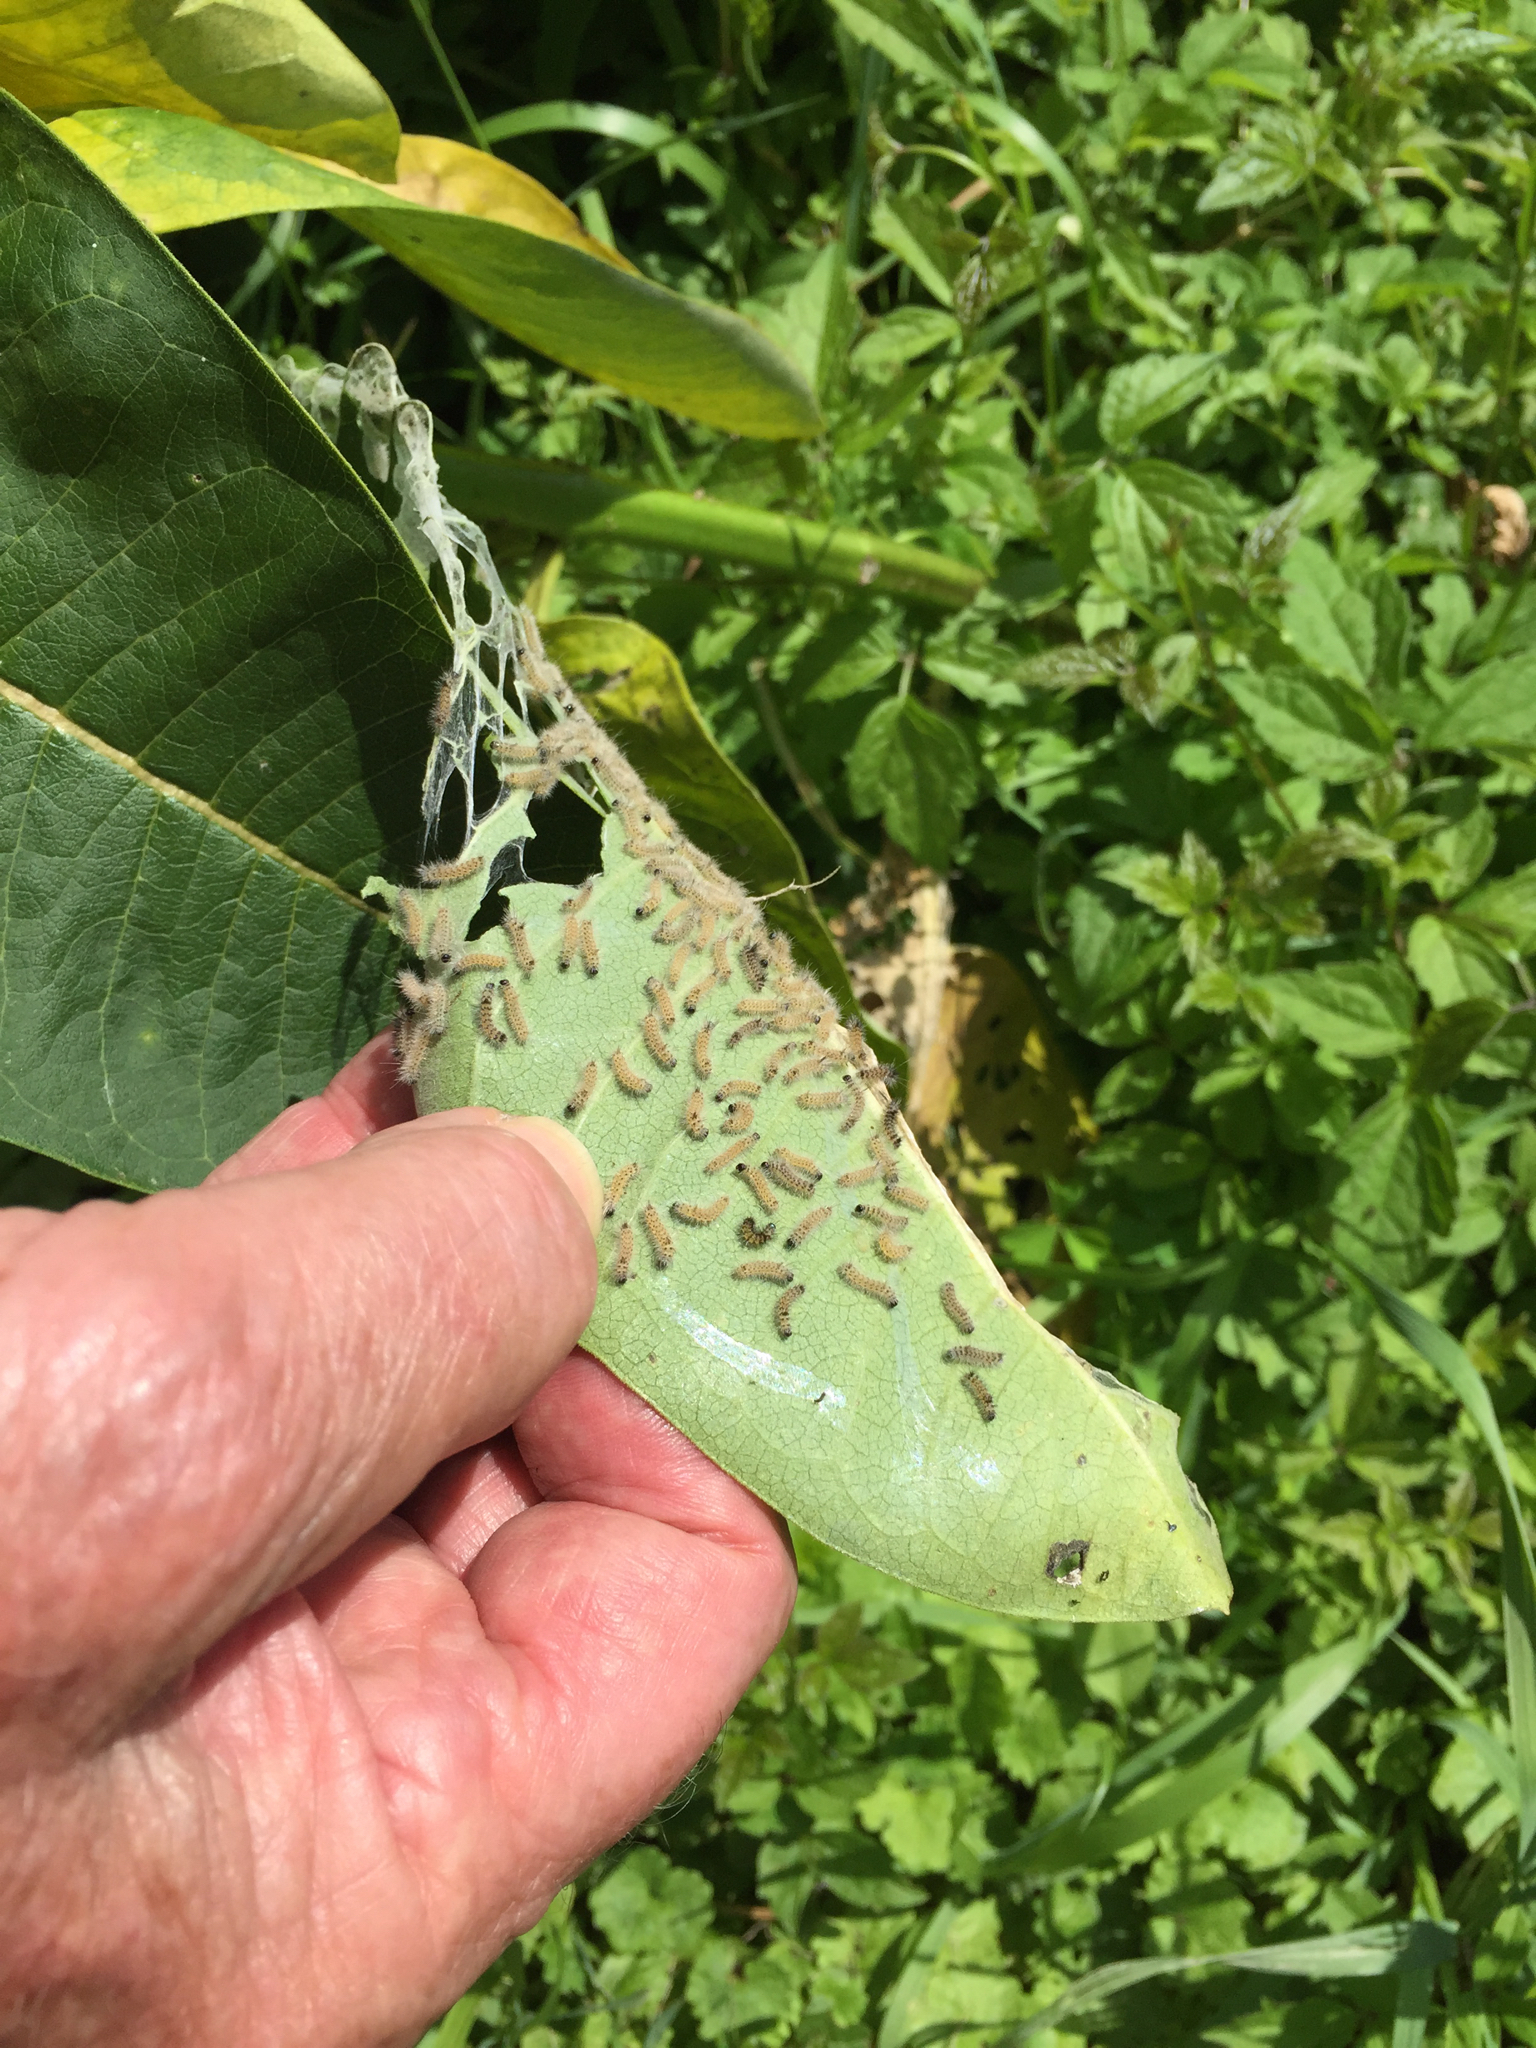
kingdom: Animalia
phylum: Arthropoda
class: Insecta
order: Lepidoptera
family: Erebidae
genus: Euchaetes
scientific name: Euchaetes egle
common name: Milkweed tussock moth
